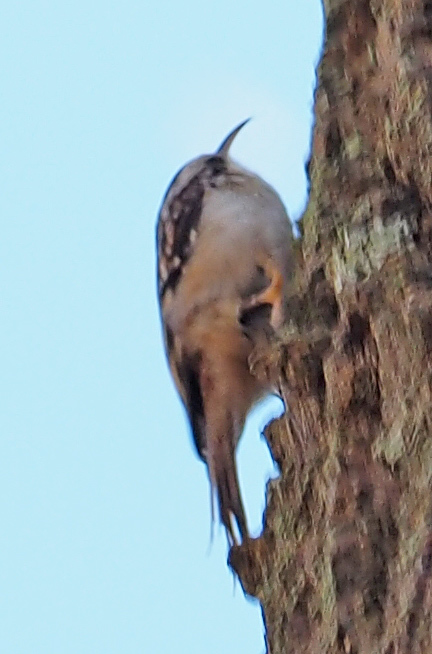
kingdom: Animalia
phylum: Chordata
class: Aves
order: Passeriformes
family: Certhiidae
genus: Certhia
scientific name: Certhia americana
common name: Brown creeper
